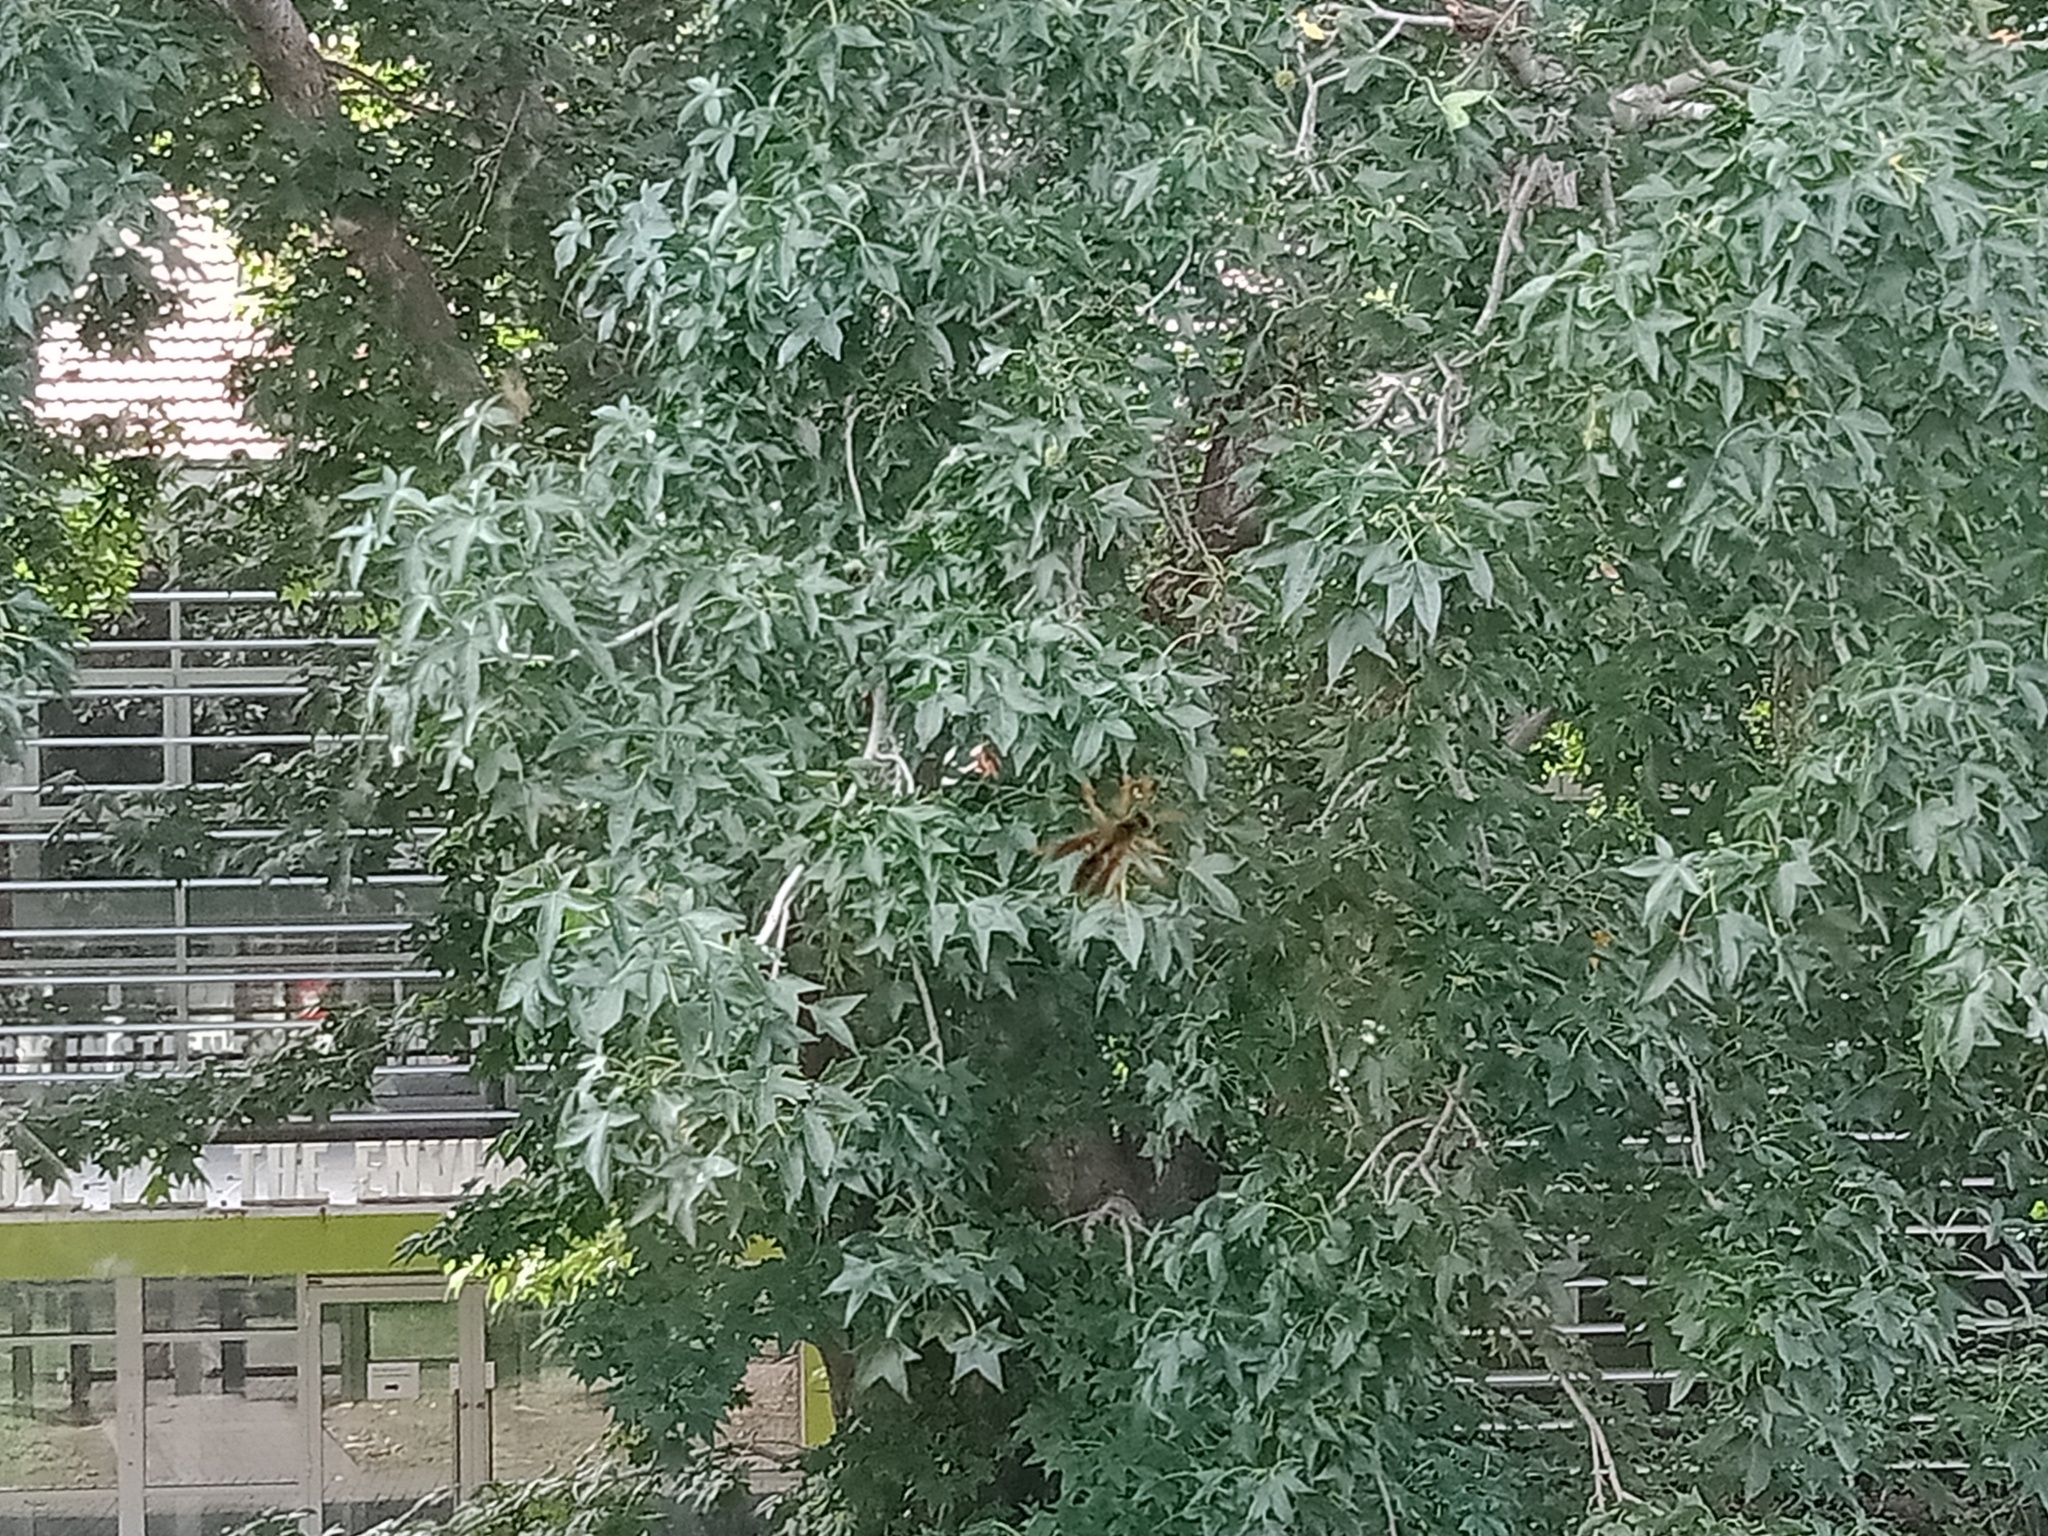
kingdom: Animalia
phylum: Arthropoda
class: Insecta
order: Hymenoptera
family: Eumenidae
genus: Polistes
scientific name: Polistes chinensis
